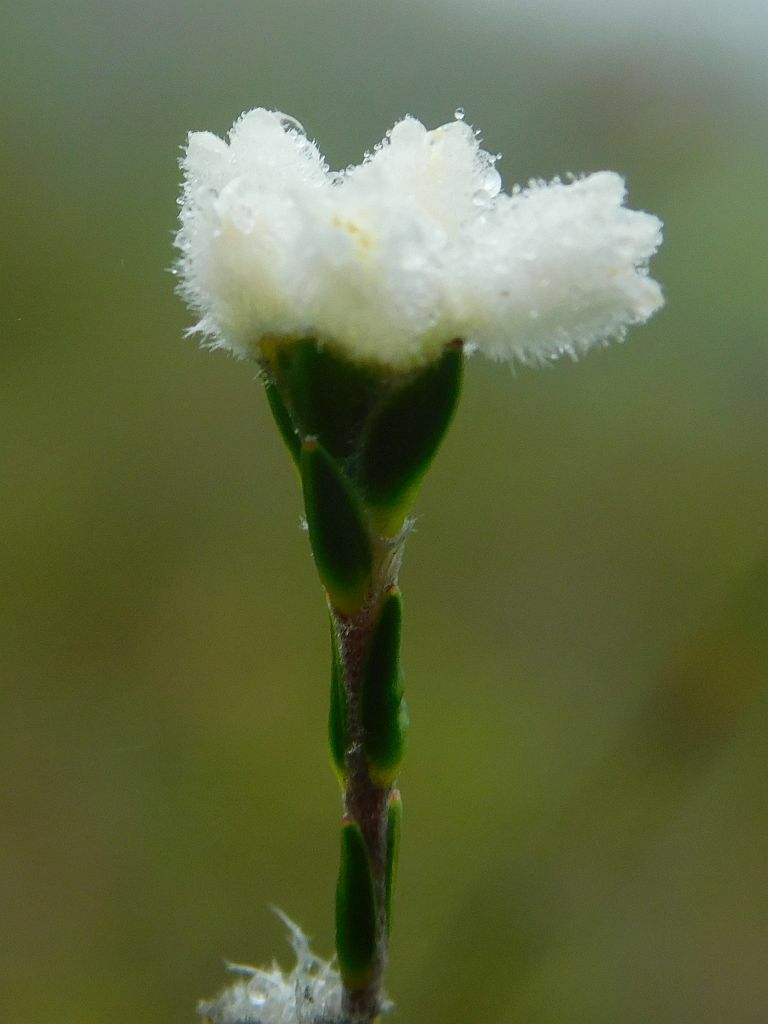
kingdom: Plantae
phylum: Tracheophyta
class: Magnoliopsida
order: Malvales
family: Thymelaeaceae
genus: Lachnaea
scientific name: Lachnaea greytonensis
